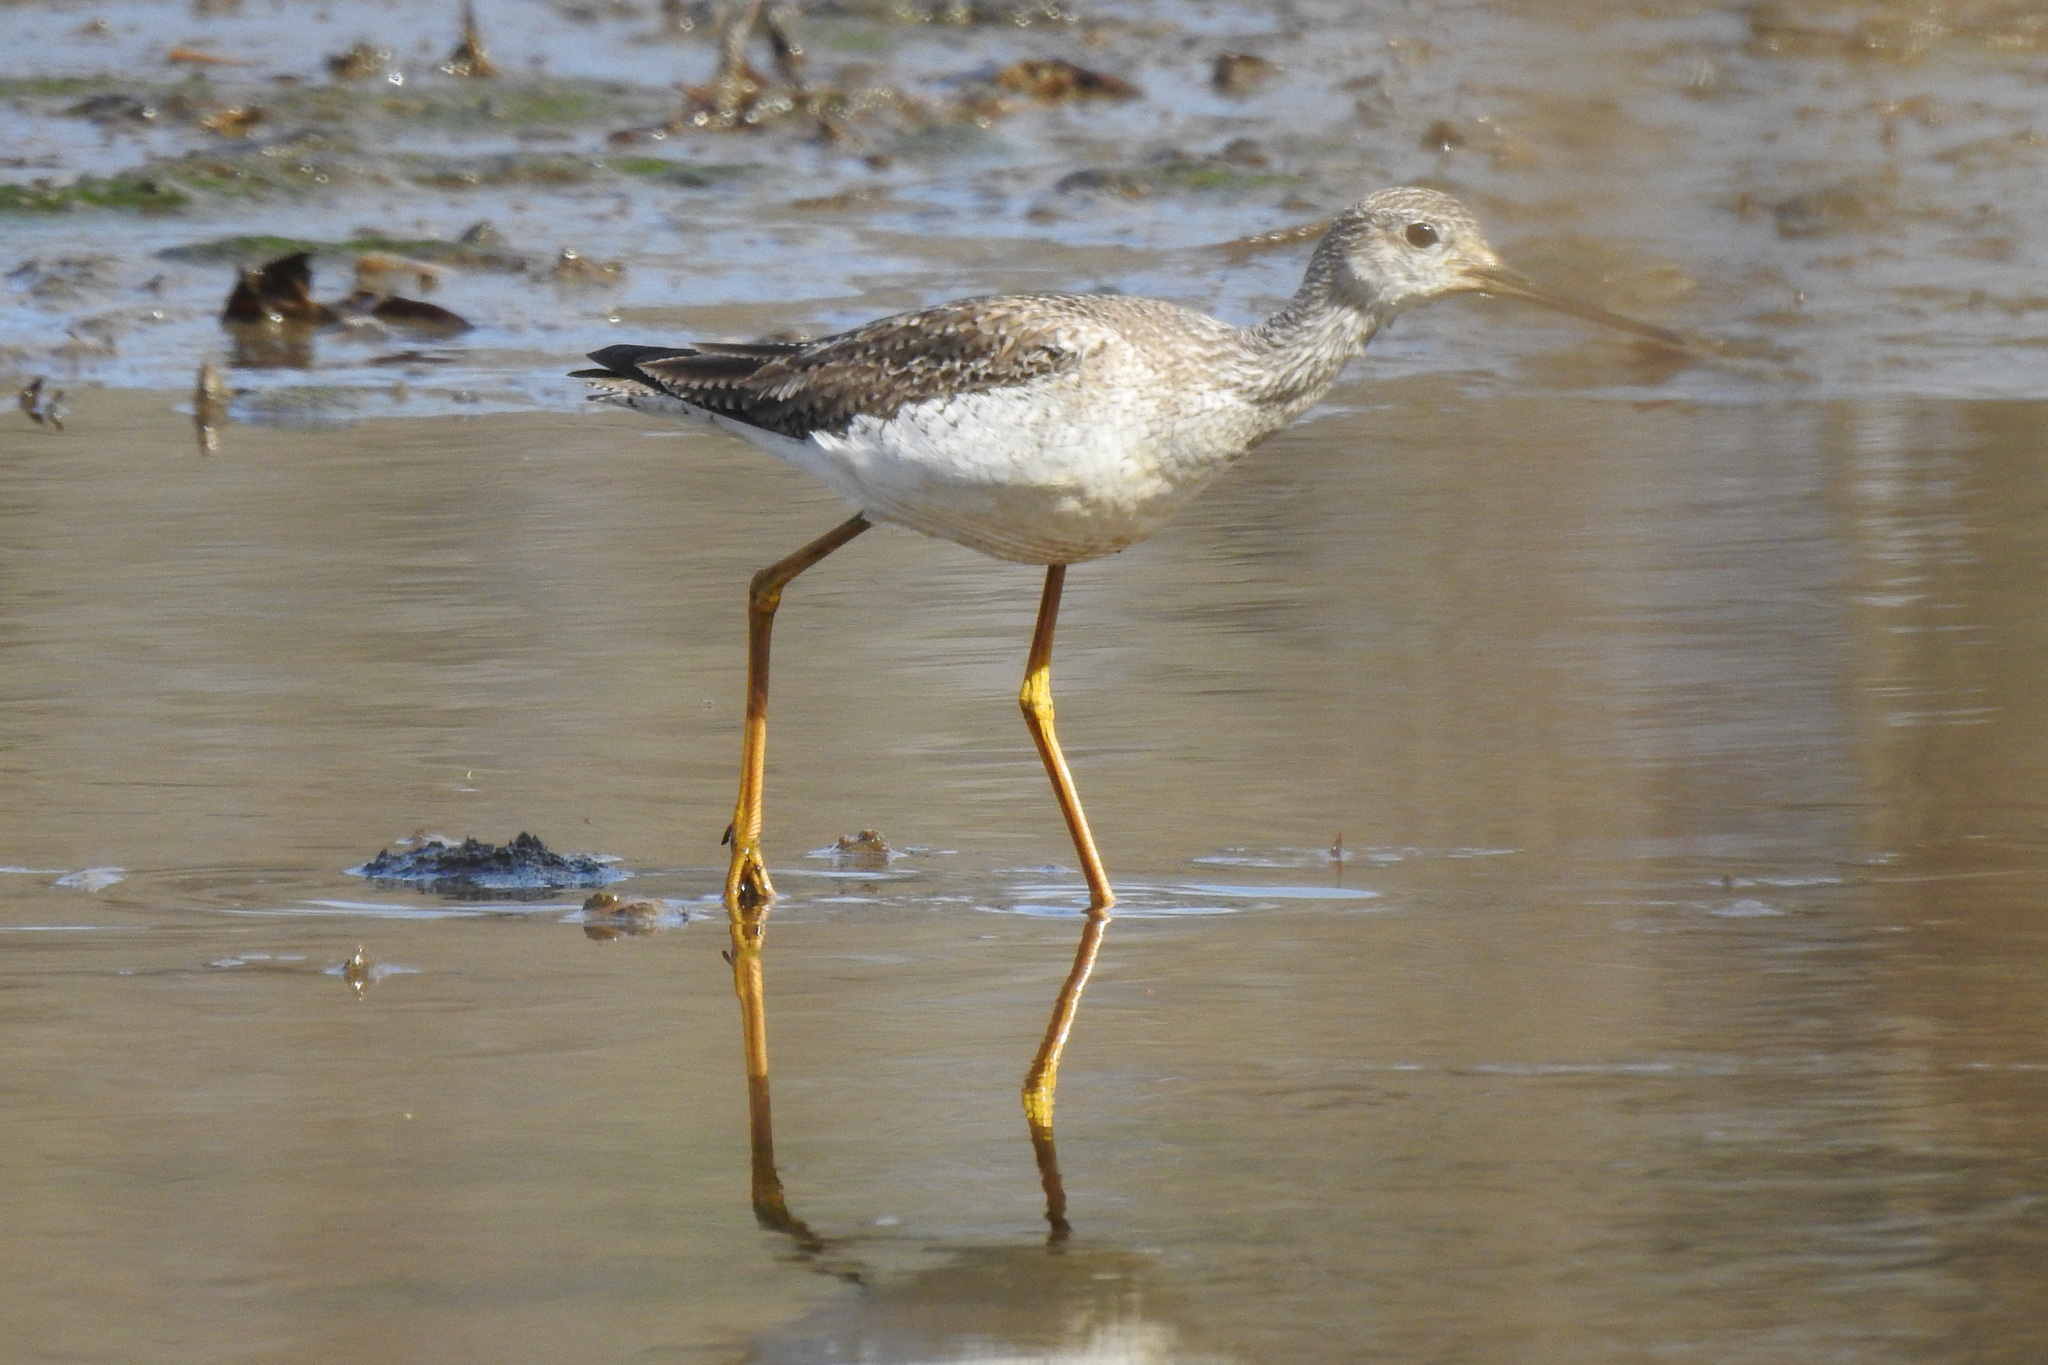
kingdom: Animalia
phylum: Chordata
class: Aves
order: Charadriiformes
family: Scolopacidae
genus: Tringa
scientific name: Tringa melanoleuca
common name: Greater yellowlegs
